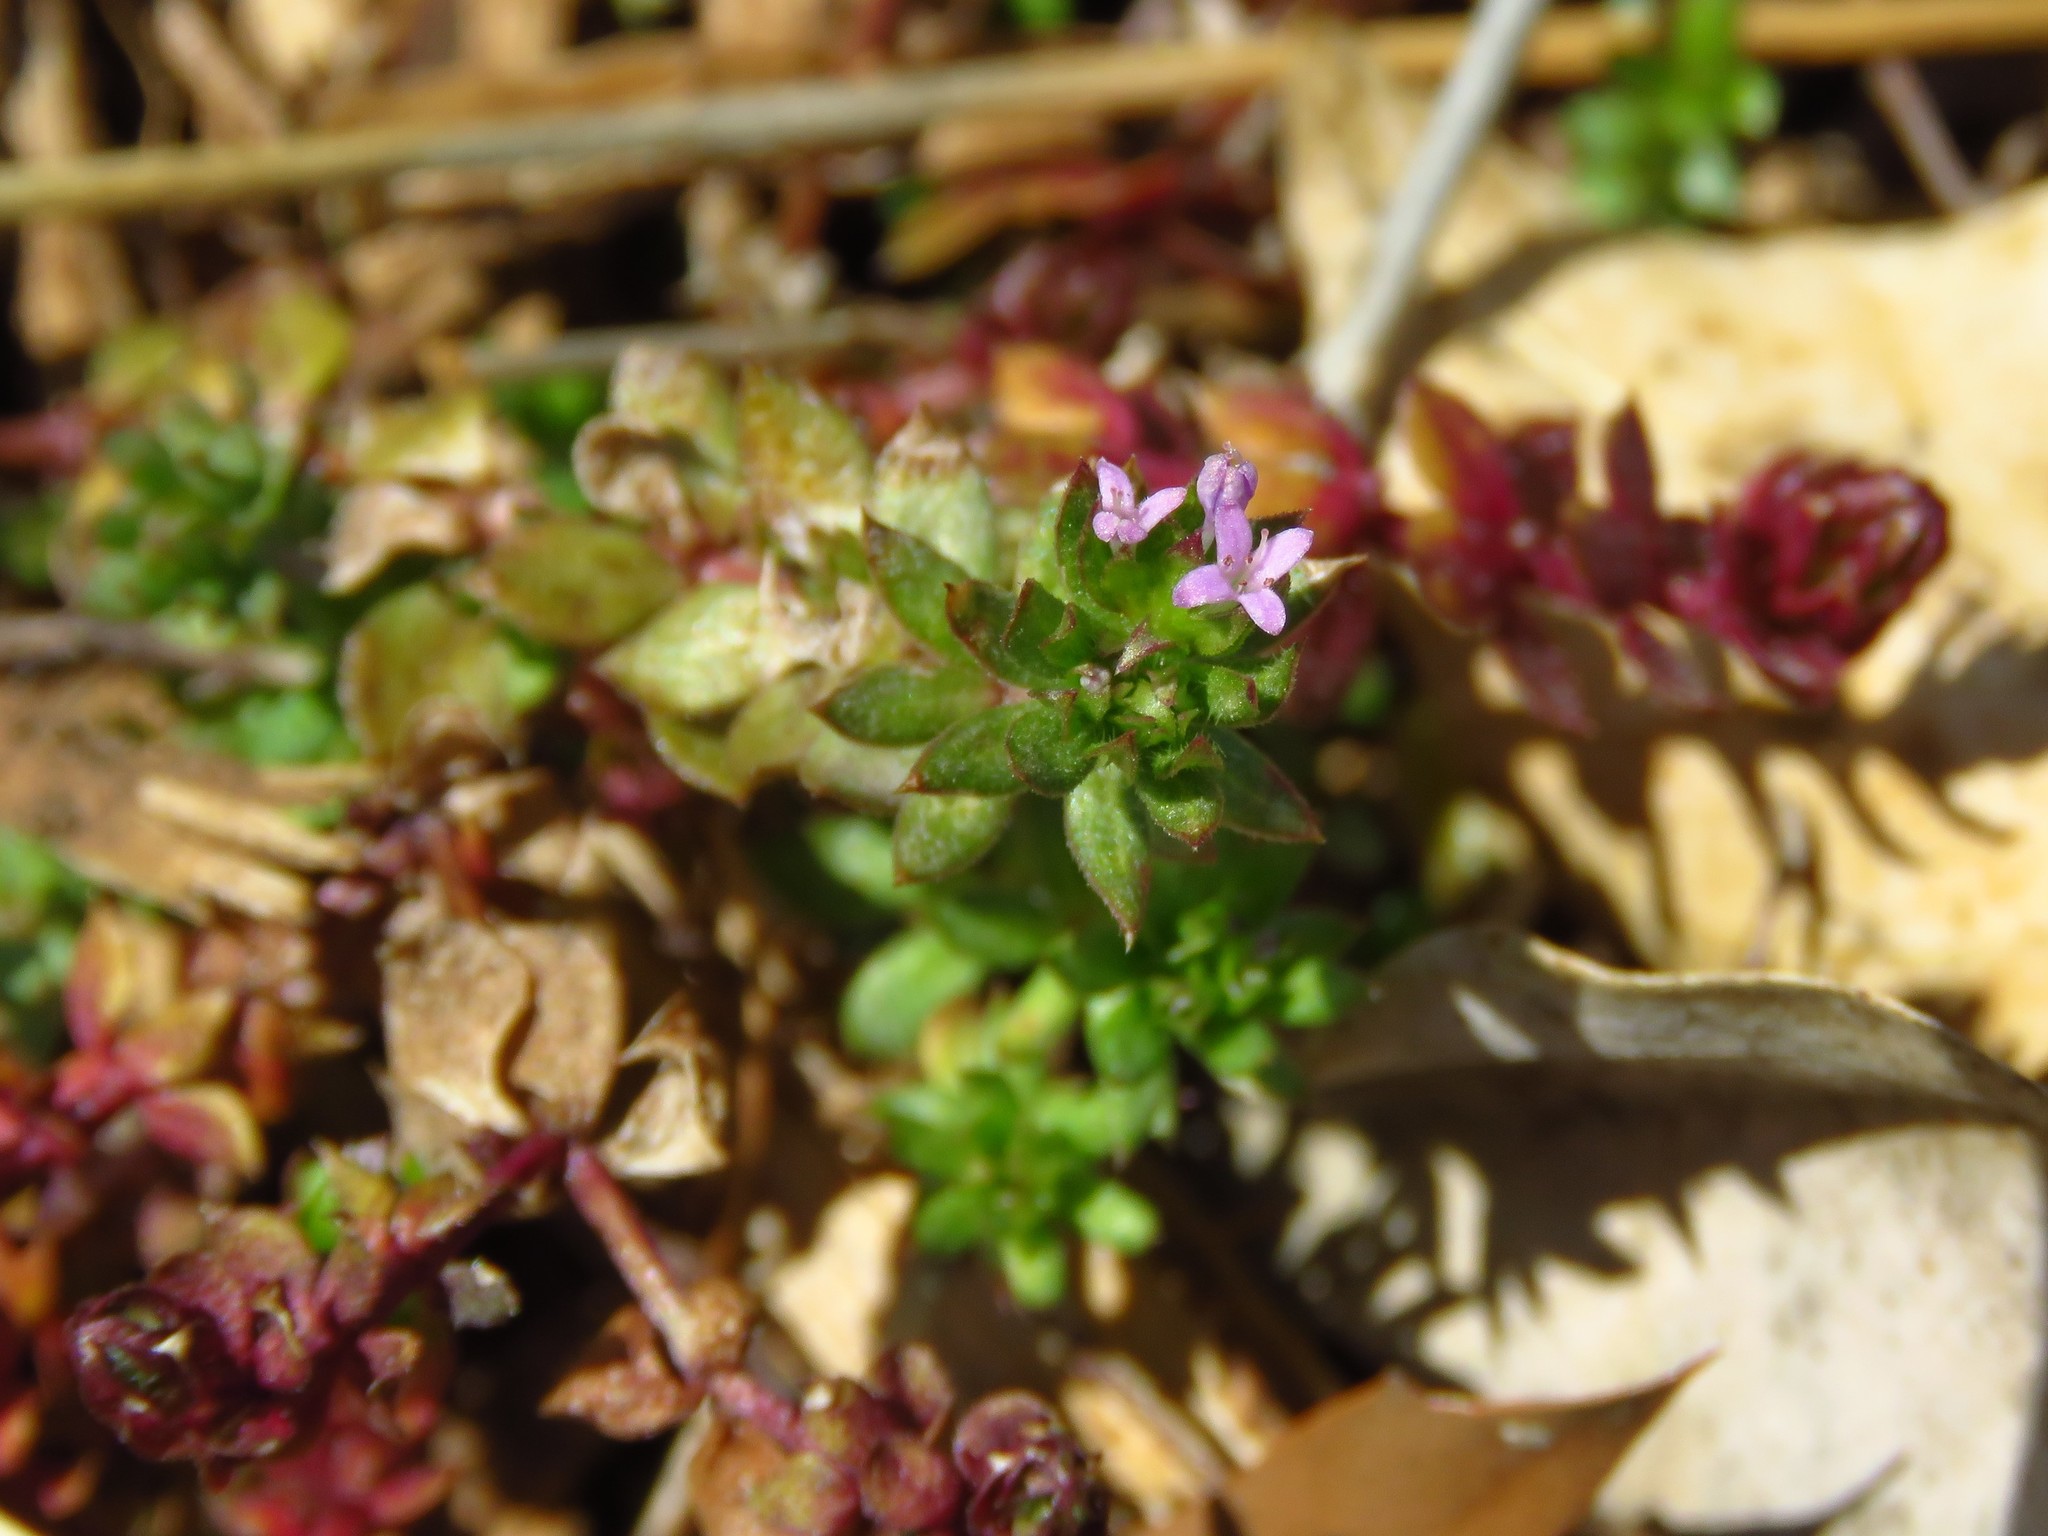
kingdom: Plantae
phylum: Tracheophyta
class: Magnoliopsida
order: Gentianales
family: Rubiaceae
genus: Sherardia
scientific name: Sherardia arvensis
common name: Field madder
